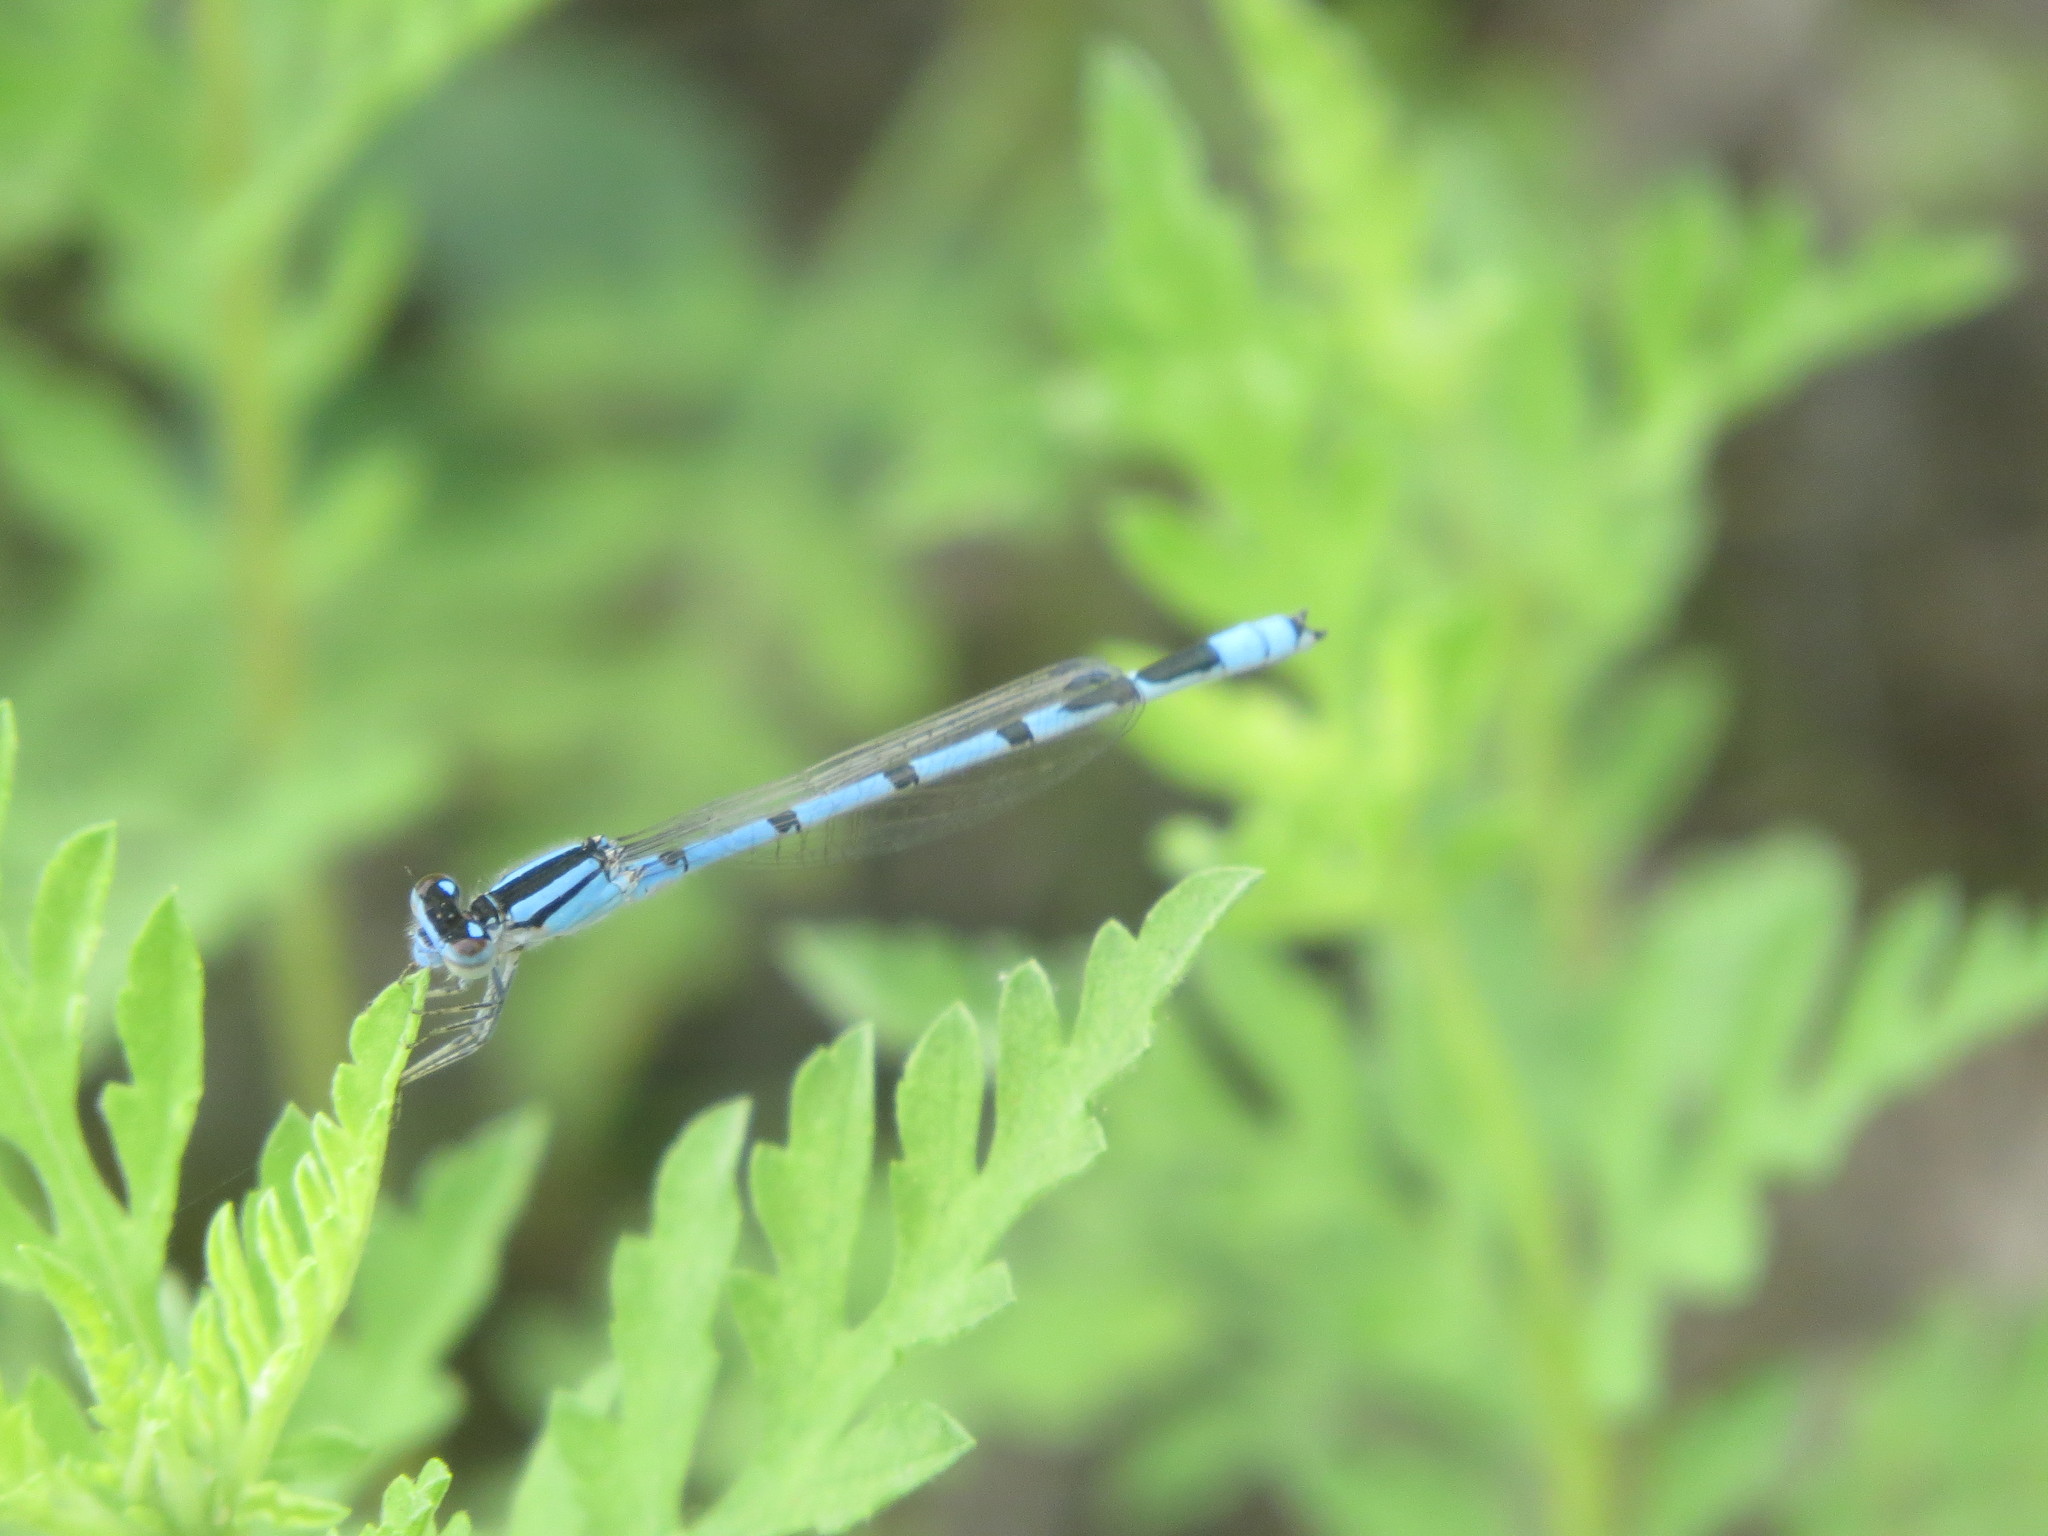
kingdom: Animalia
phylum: Arthropoda
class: Insecta
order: Odonata
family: Coenagrionidae
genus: Enallagma
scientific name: Enallagma civile
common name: Damselfly
